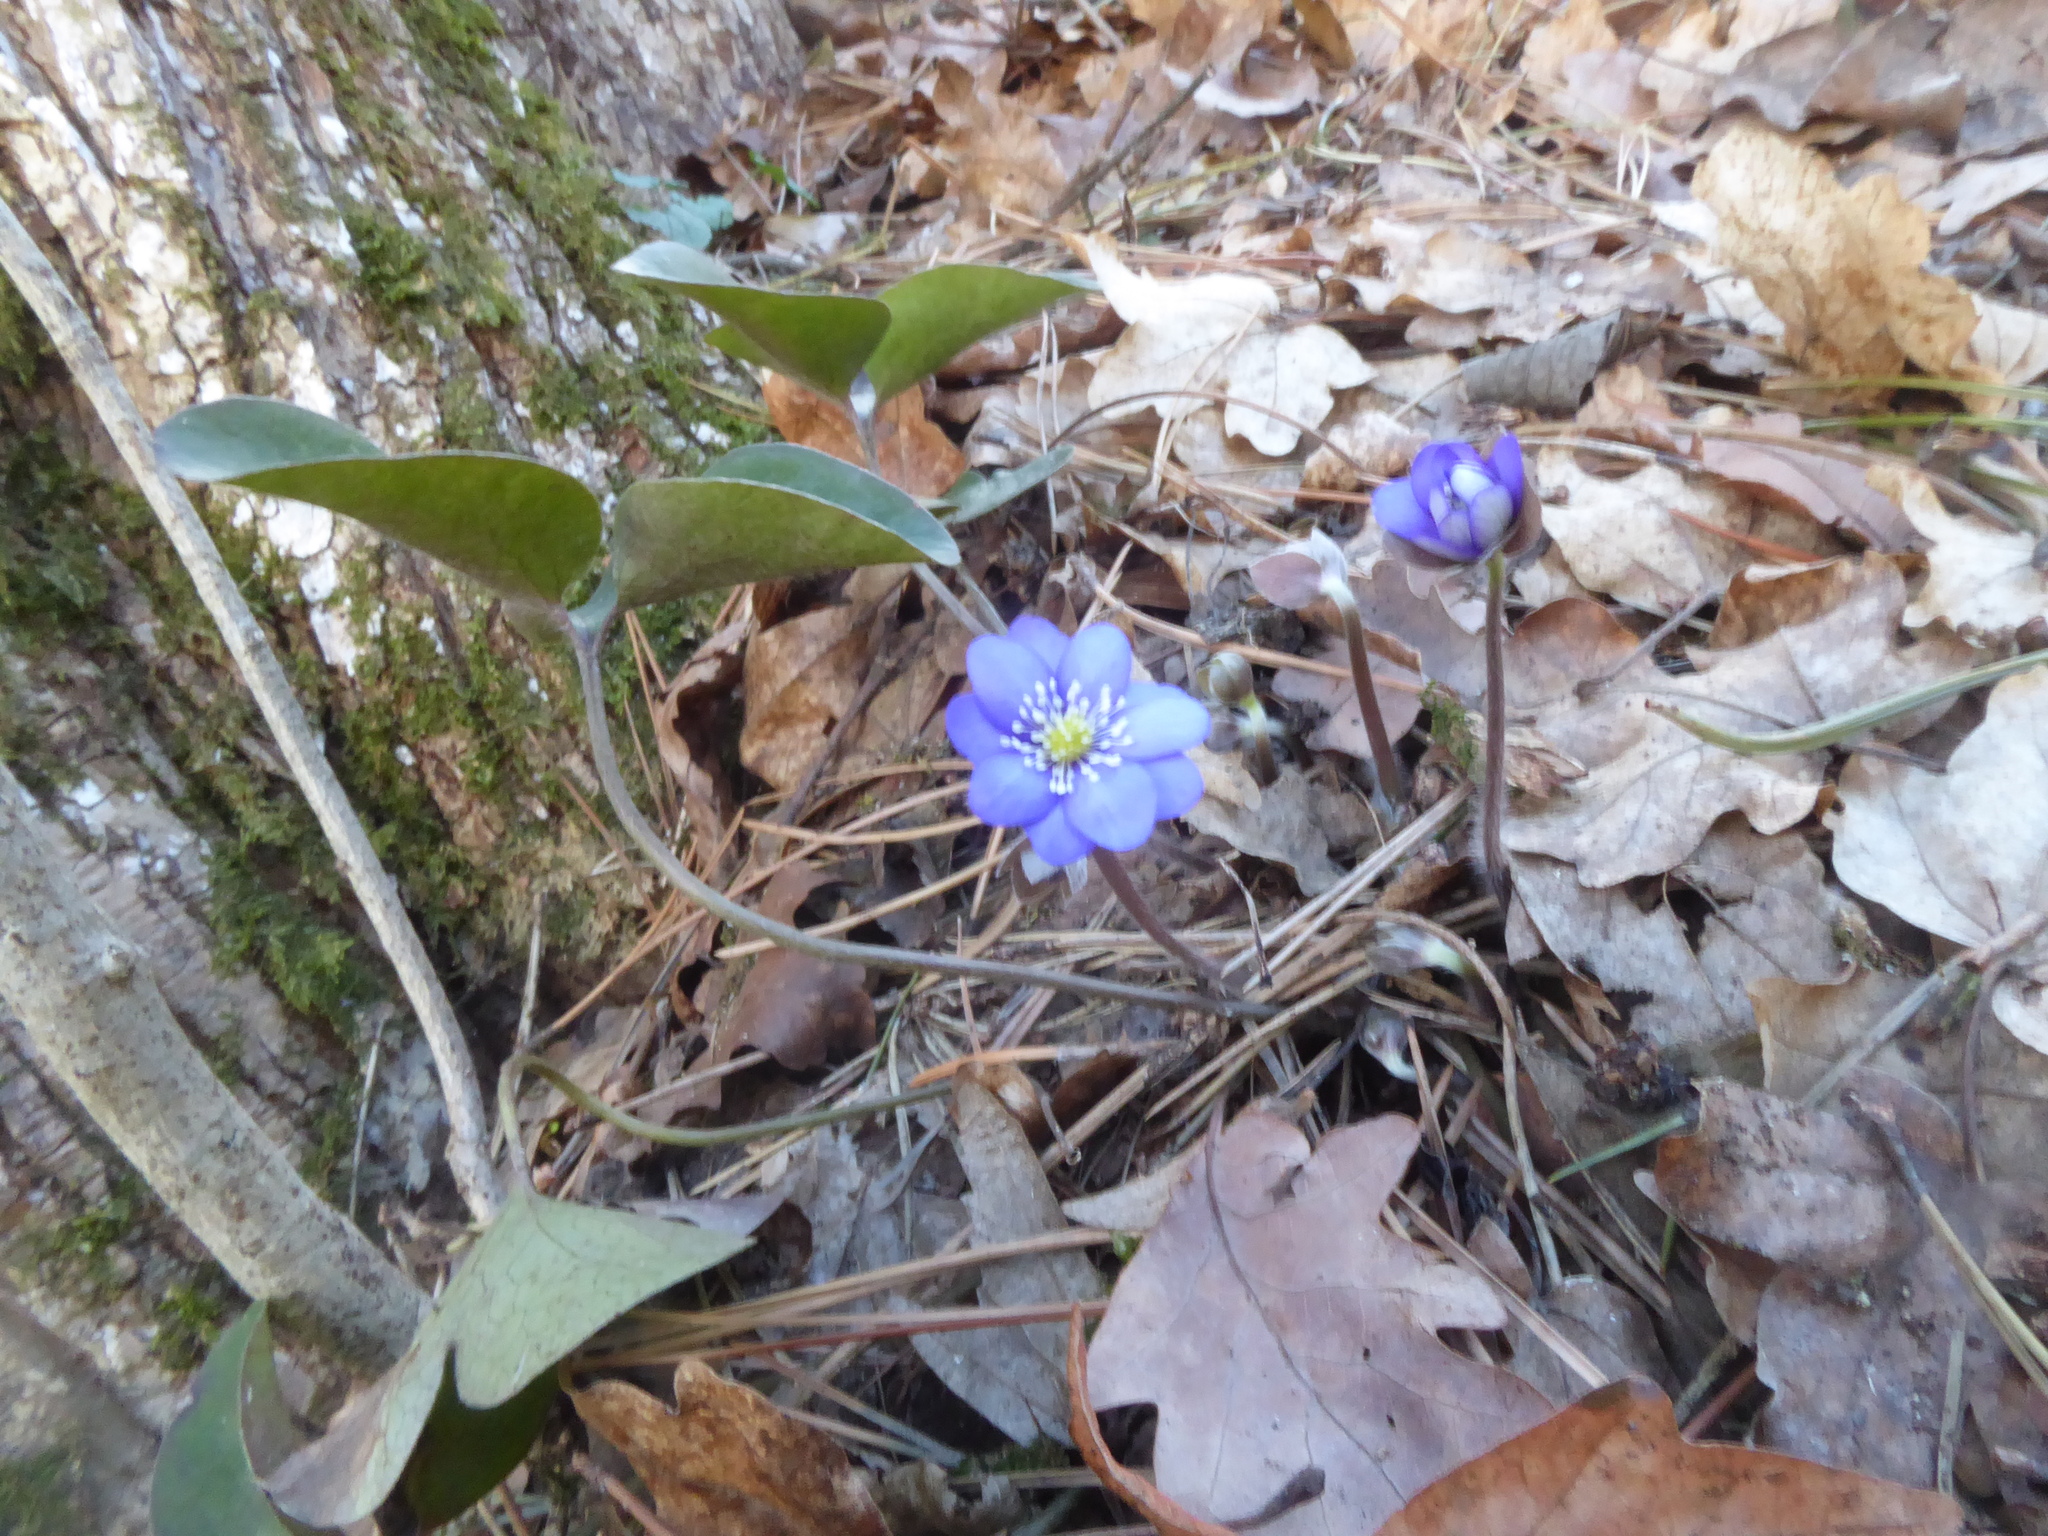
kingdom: Plantae
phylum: Tracheophyta
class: Magnoliopsida
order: Ranunculales
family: Ranunculaceae
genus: Hepatica
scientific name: Hepatica nobilis
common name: Liverleaf
